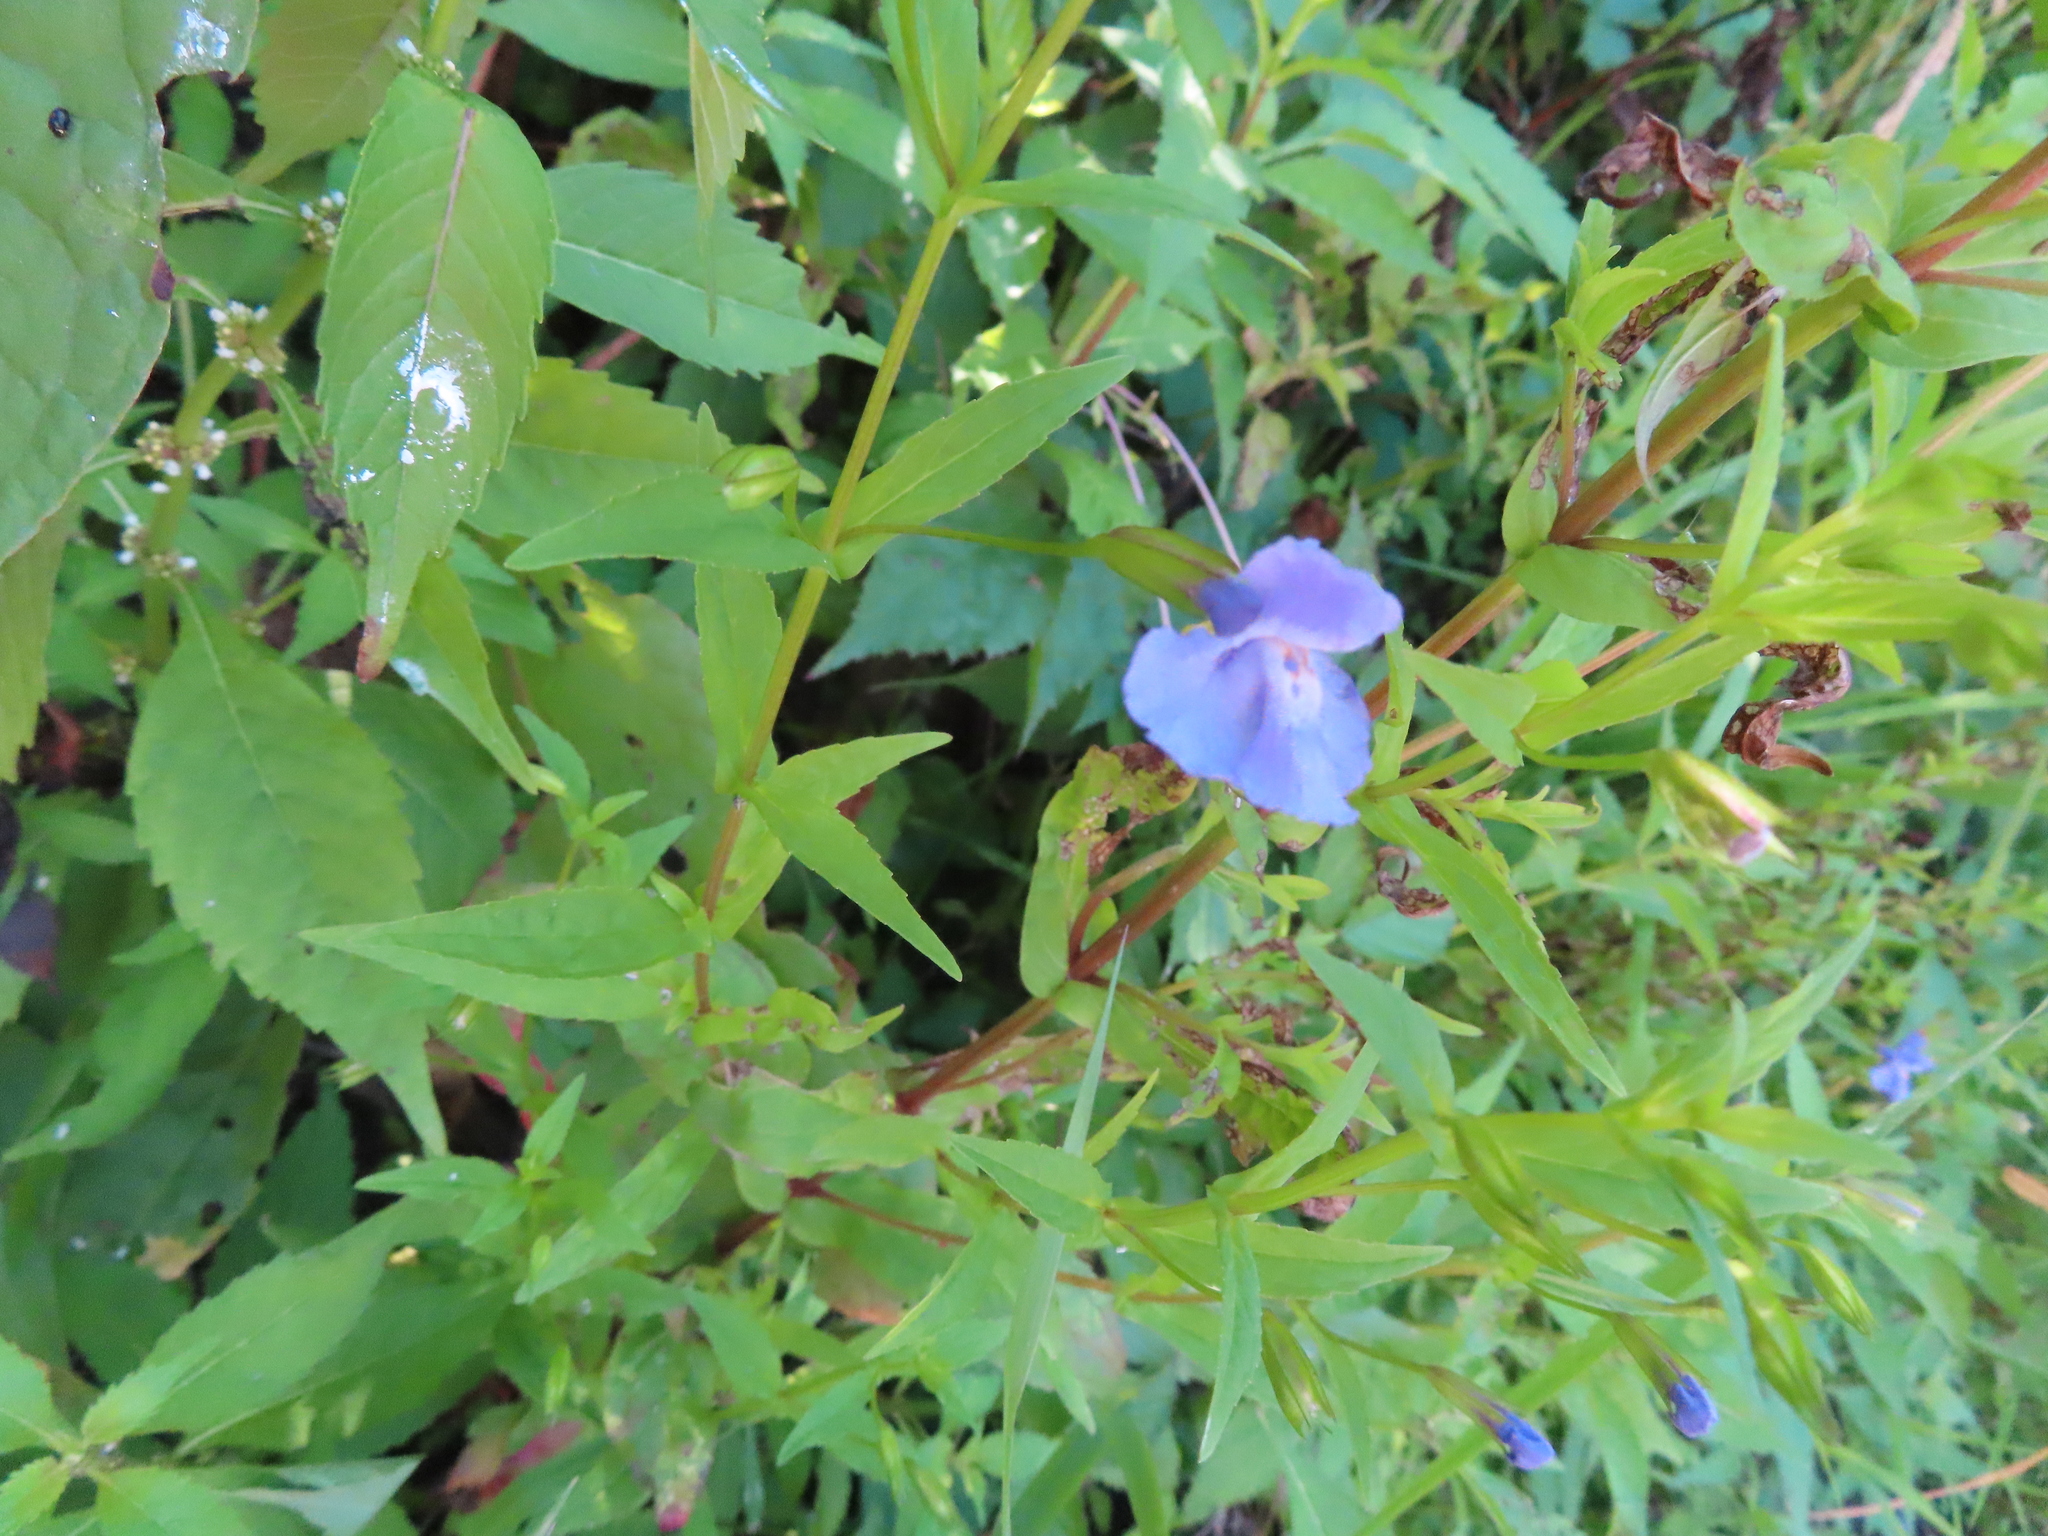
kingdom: Plantae
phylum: Tracheophyta
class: Magnoliopsida
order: Lamiales
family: Phrymaceae
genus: Mimulus
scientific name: Mimulus ringens
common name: Allegheny monkeyflower
